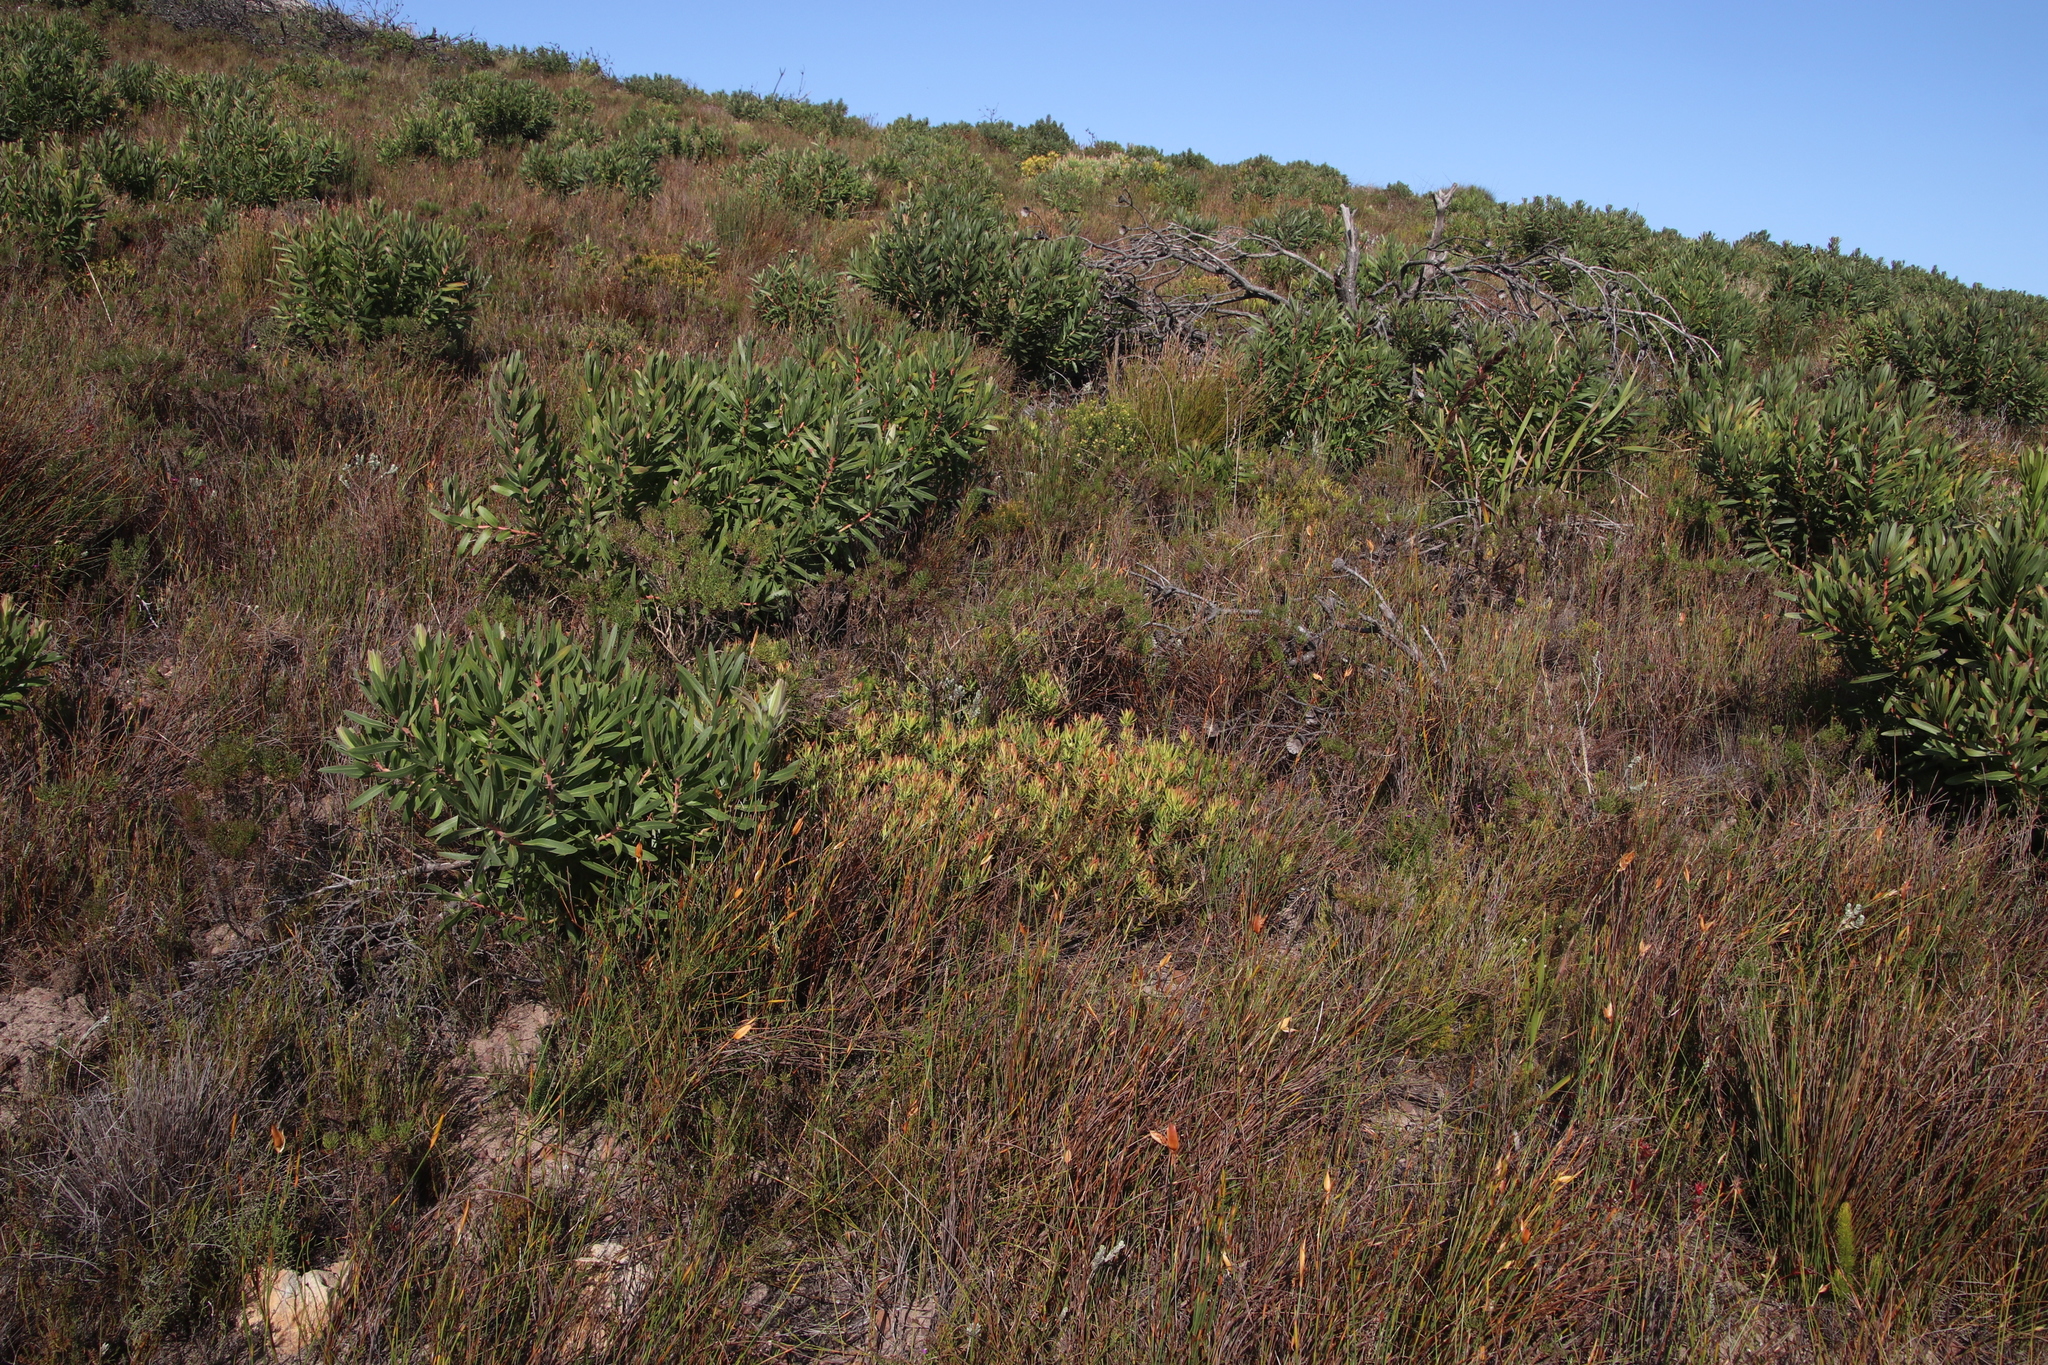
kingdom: Plantae
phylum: Tracheophyta
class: Magnoliopsida
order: Proteales
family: Proteaceae
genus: Leucadendron
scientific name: Leucadendron salignum
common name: Common sunshine conebush
